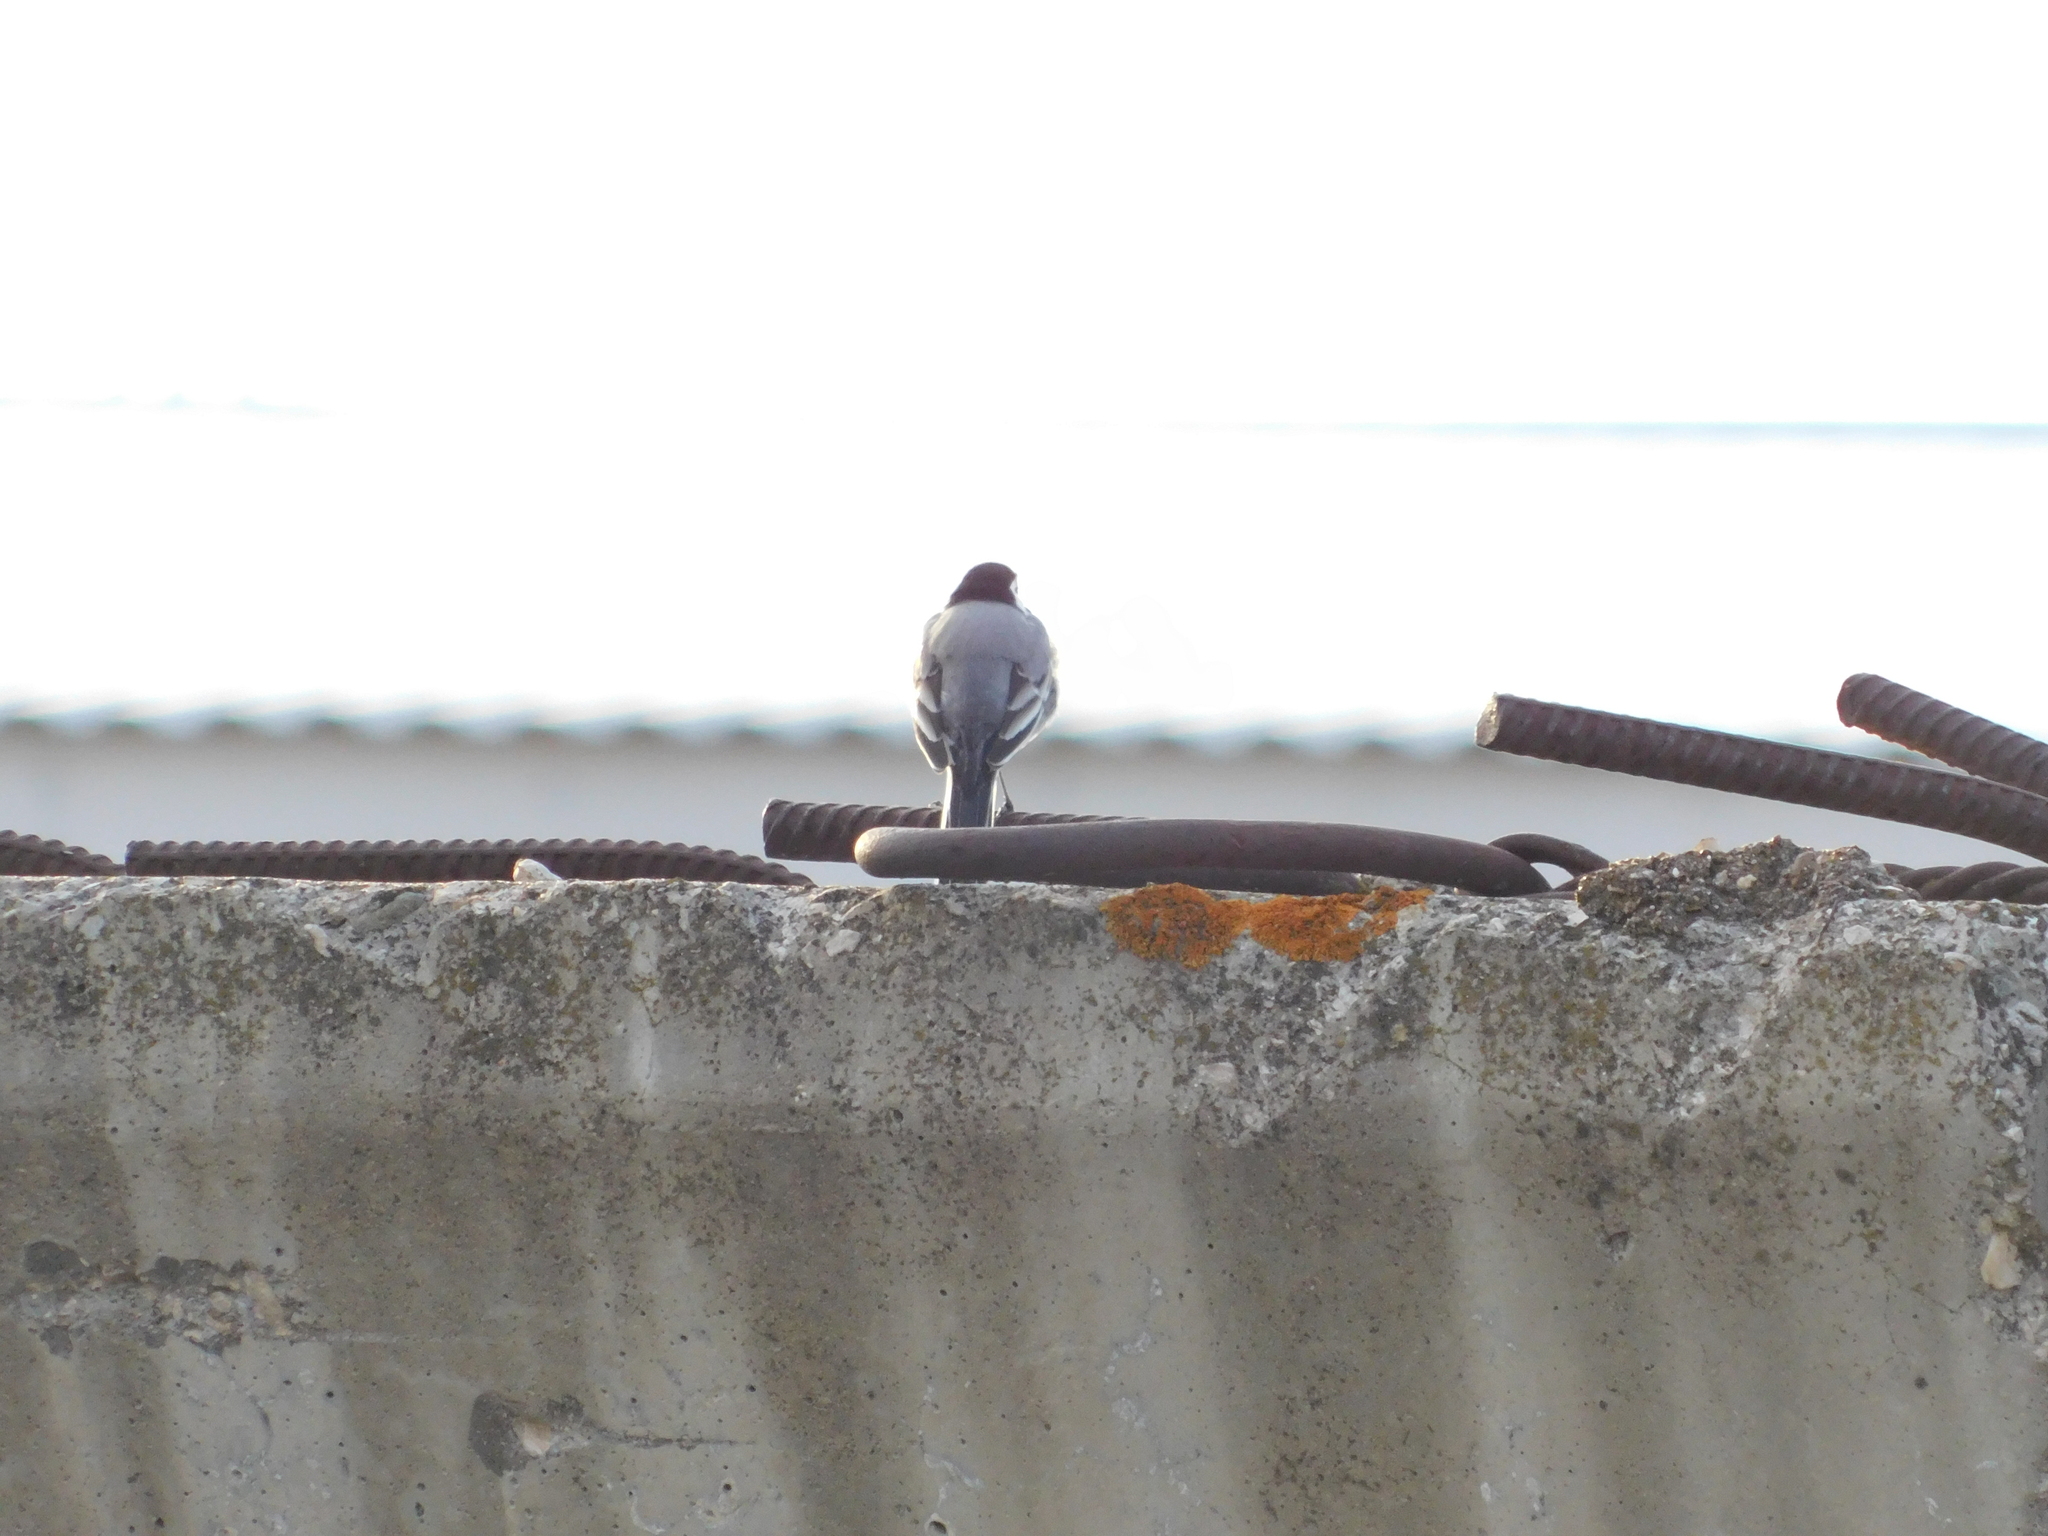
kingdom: Animalia
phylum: Chordata
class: Aves
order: Passeriformes
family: Motacillidae
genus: Motacilla
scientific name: Motacilla alba
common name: White wagtail
